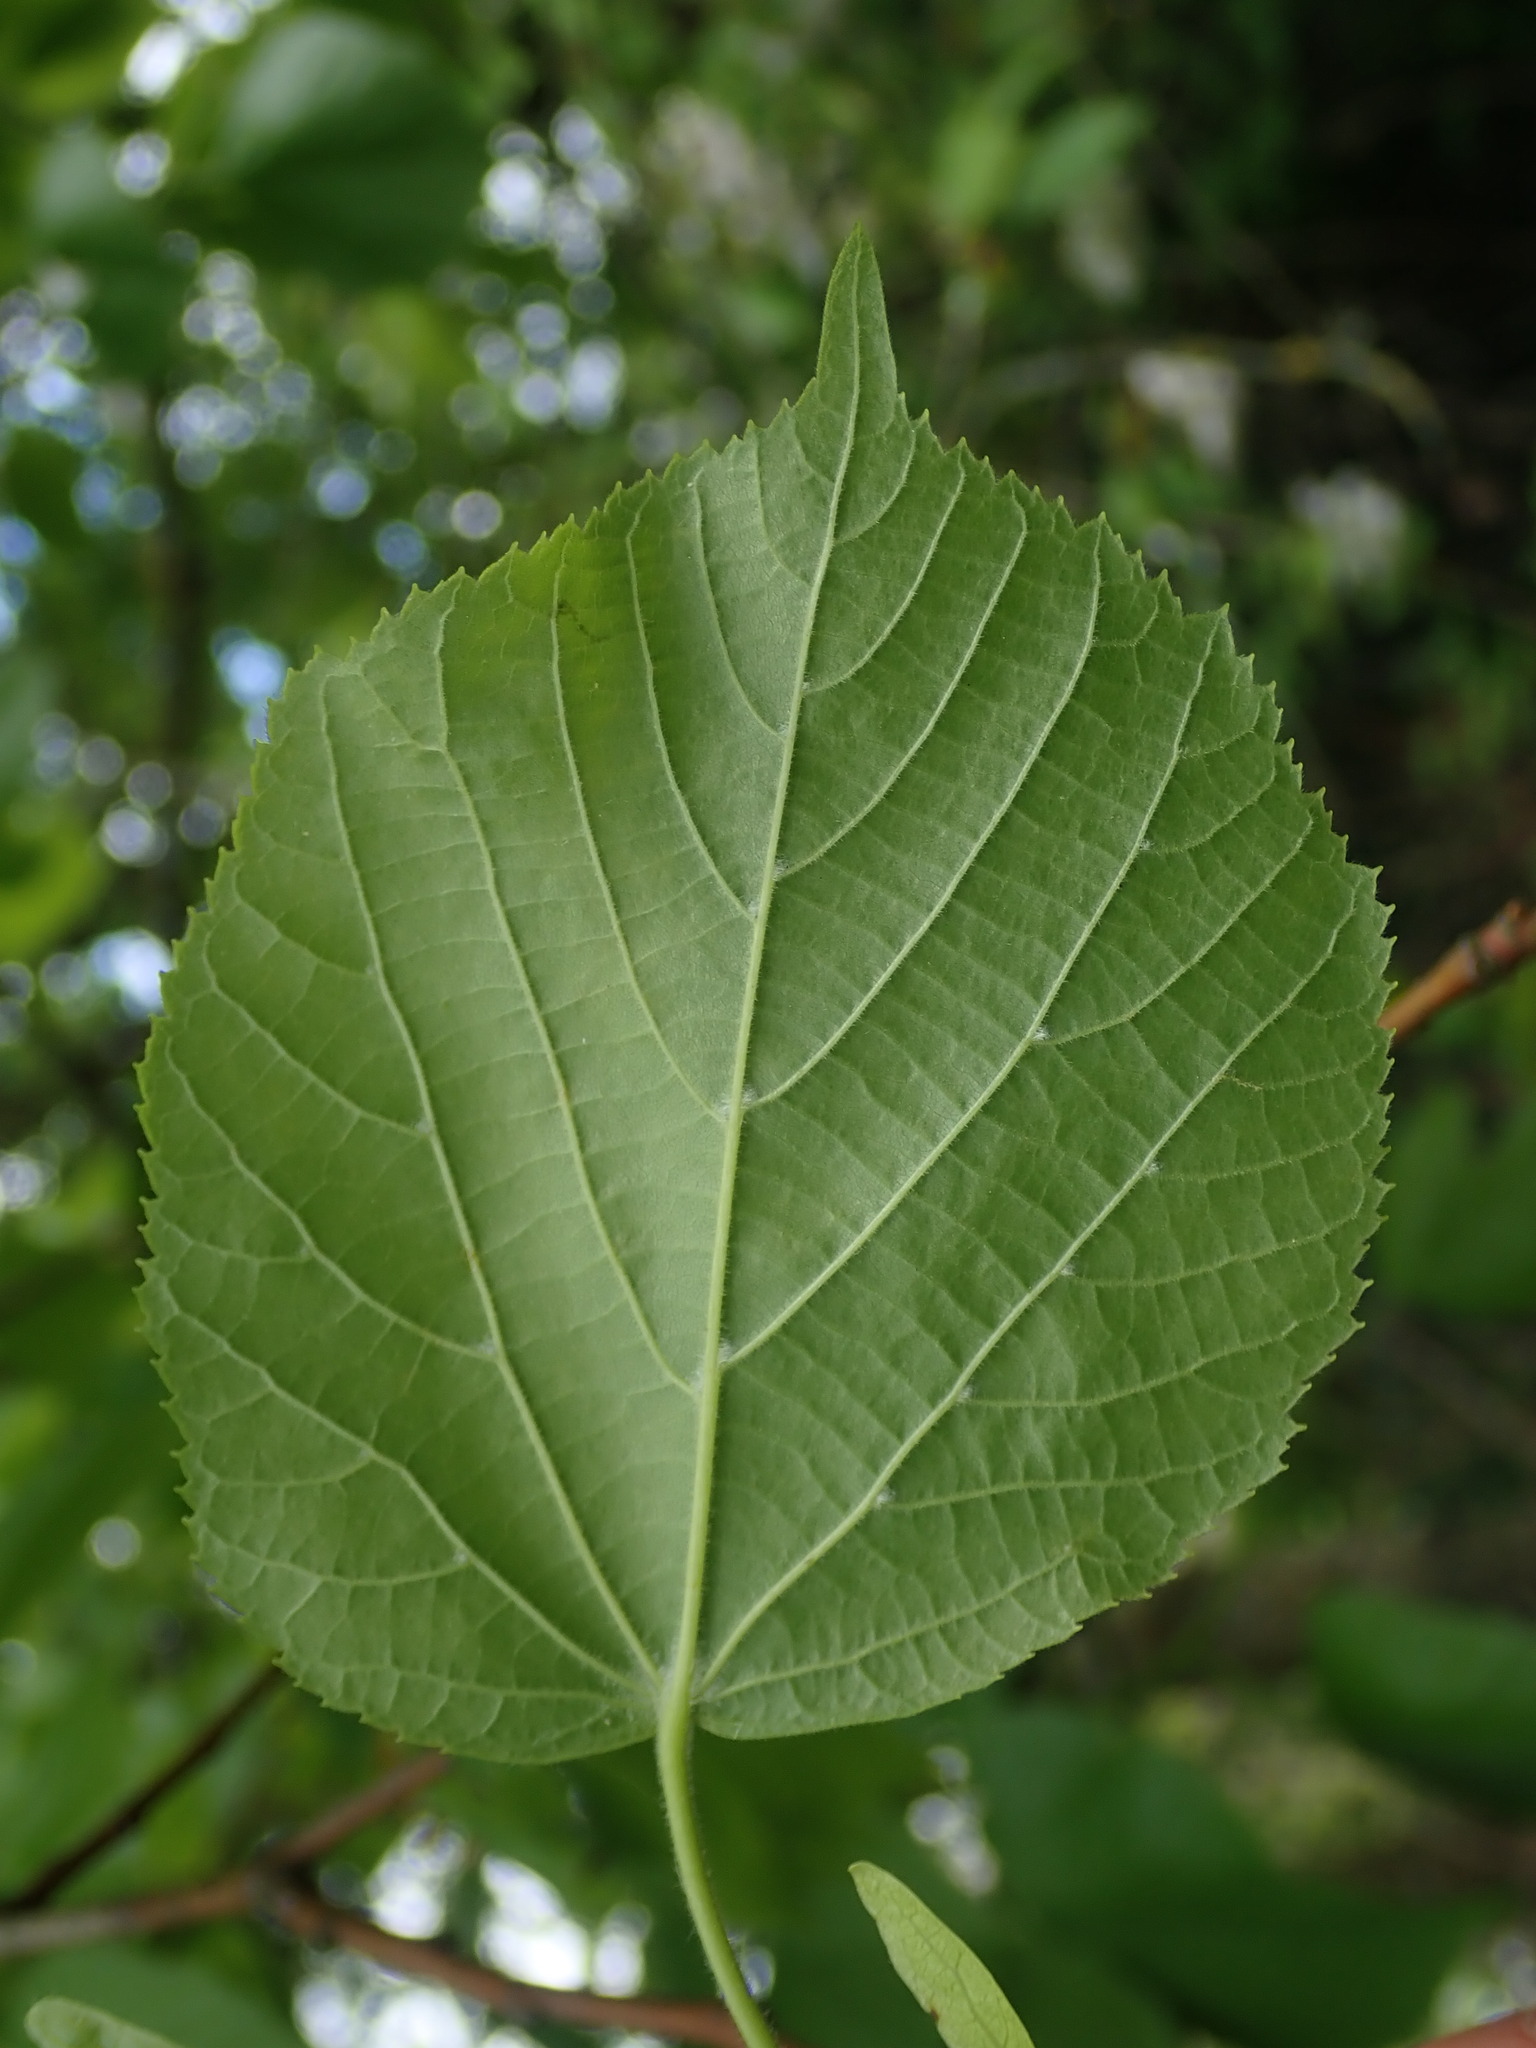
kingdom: Plantae
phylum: Tracheophyta
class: Magnoliopsida
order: Malvales
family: Malvaceae
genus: Tilia
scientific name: Tilia platyphyllos
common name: Large-leaved lime
